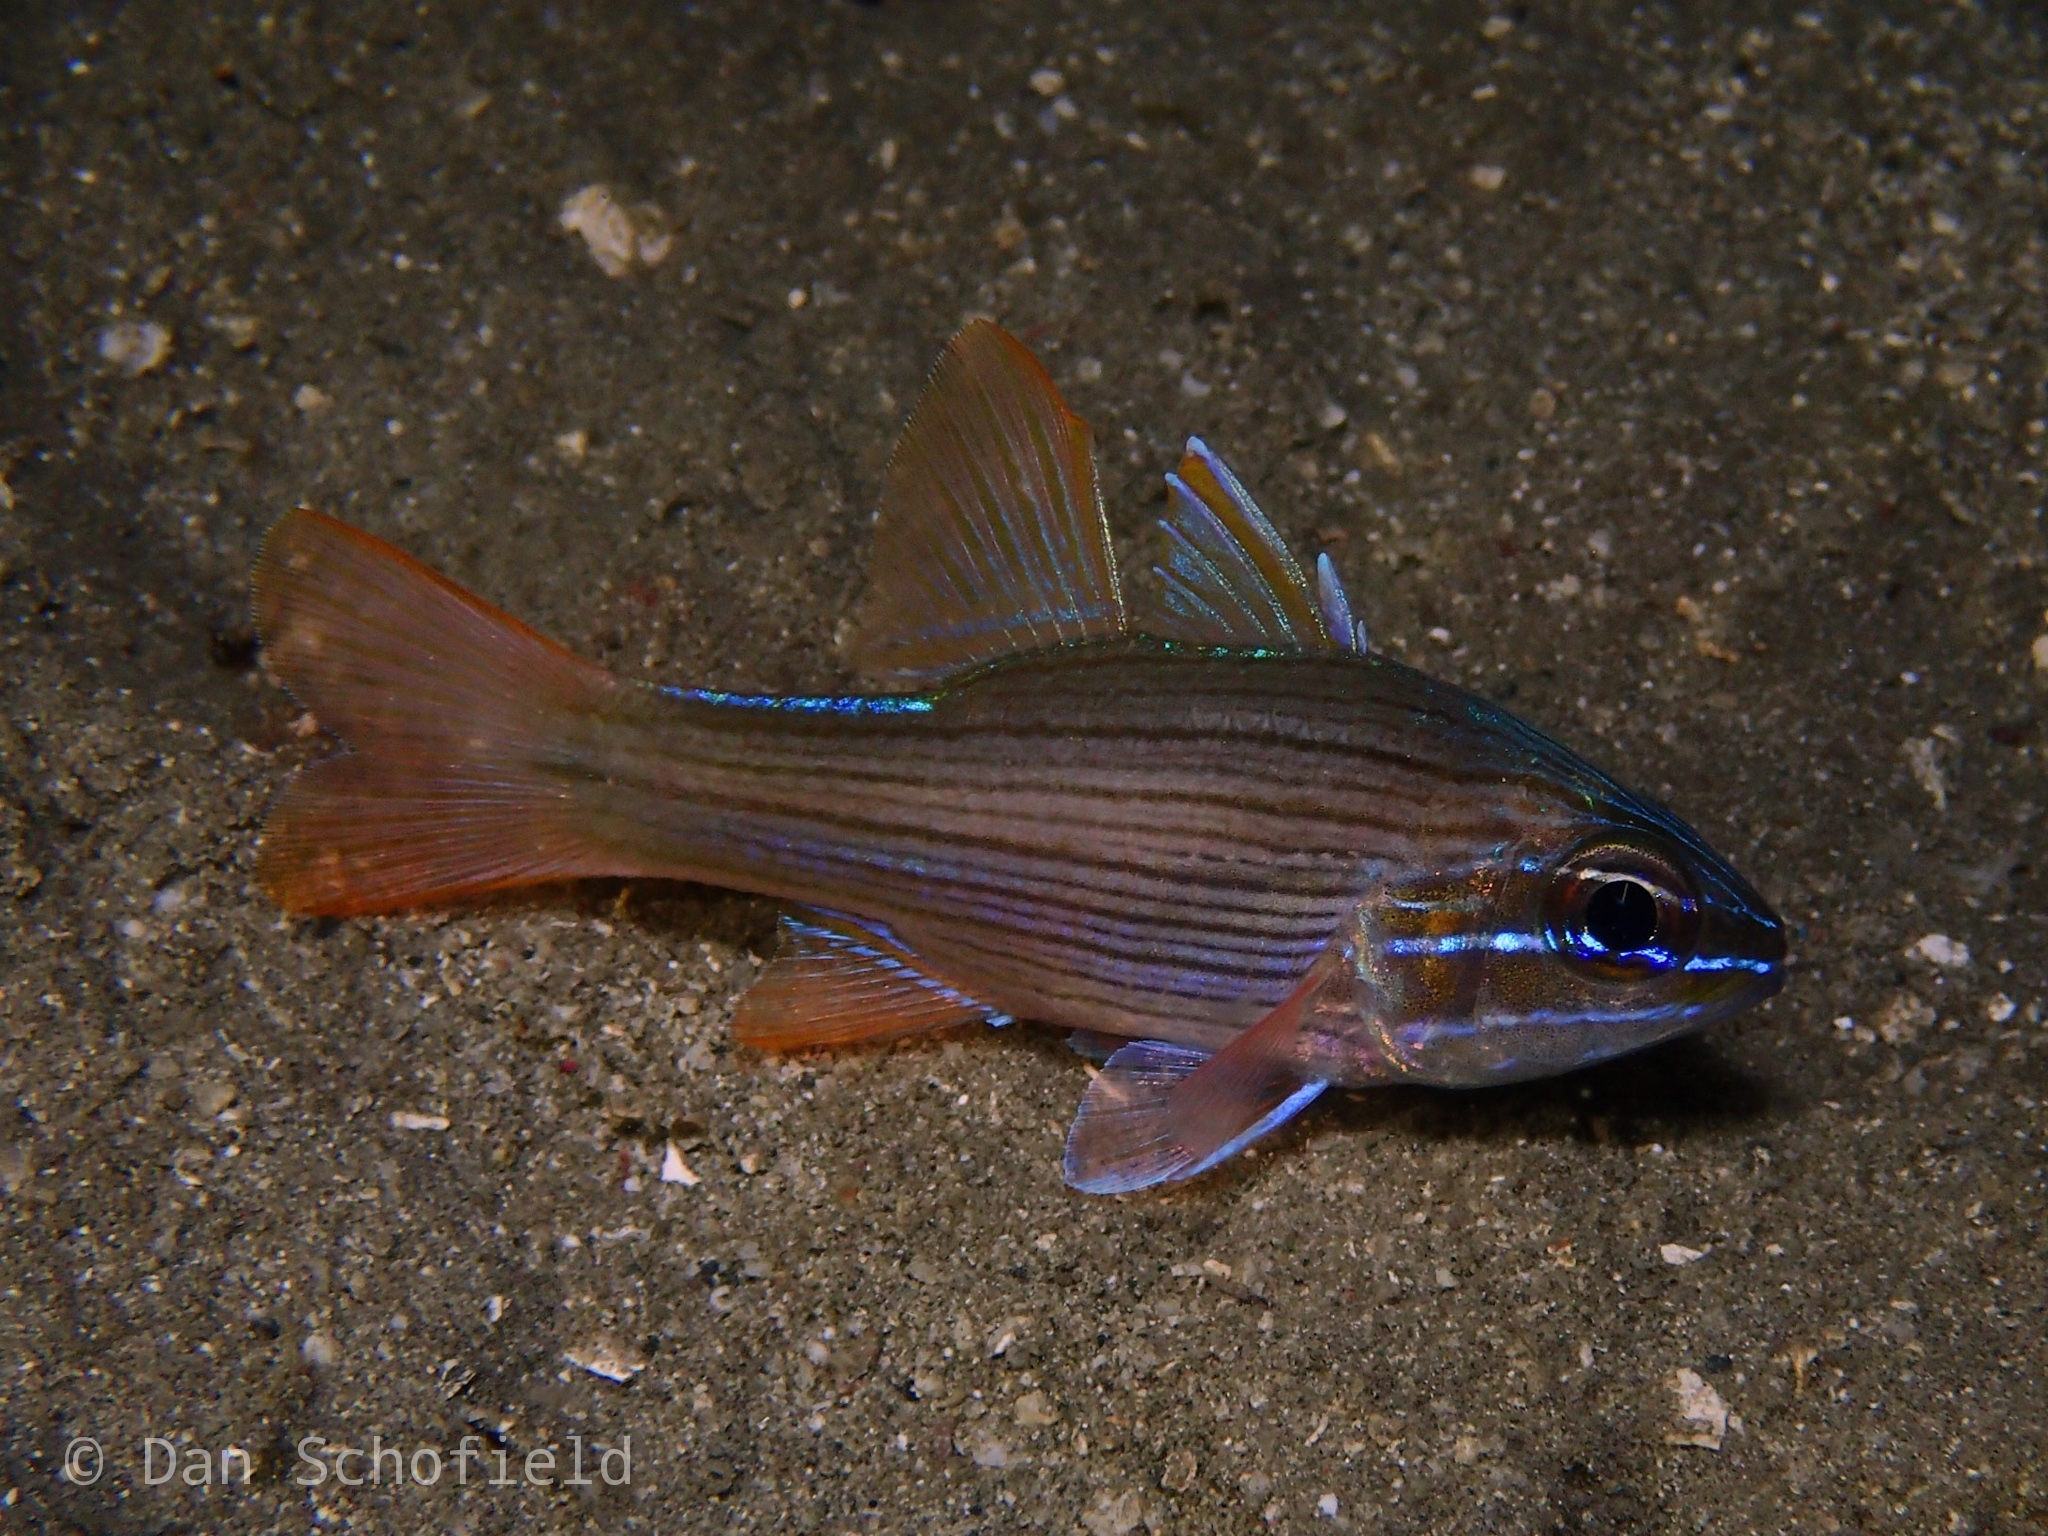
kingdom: Animalia
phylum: Chordata
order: Perciformes
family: Apogonidae
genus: Ostorhinchus
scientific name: Ostorhinchus multilineatus
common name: Many-lined cardinalfish
